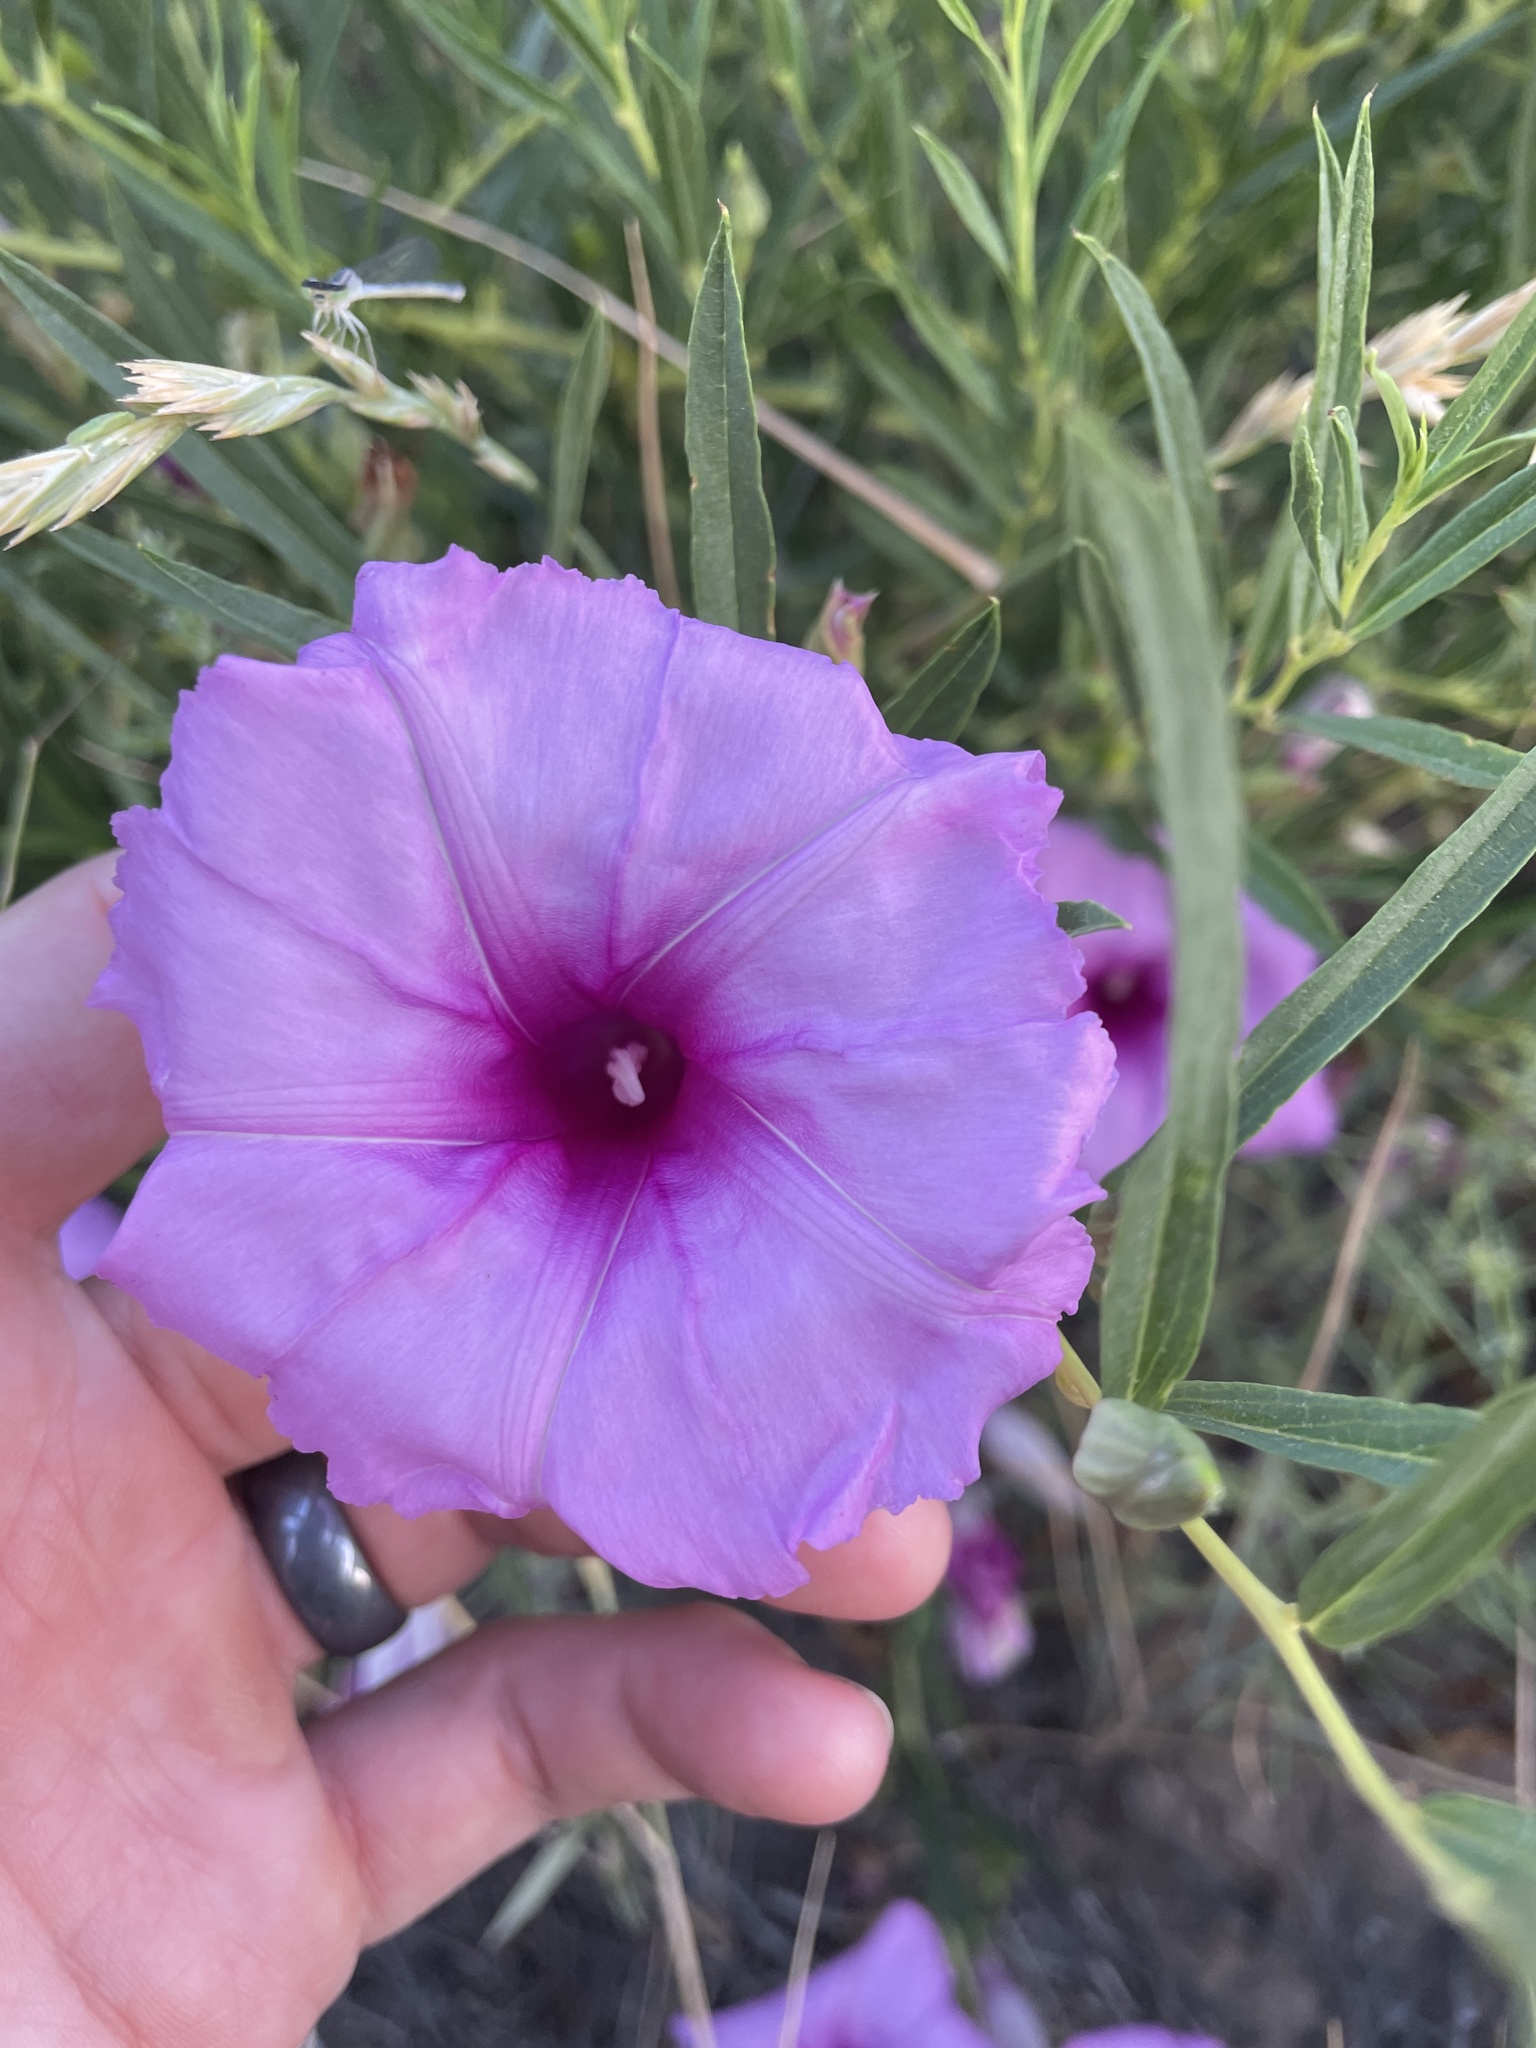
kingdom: Plantae
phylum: Tracheophyta
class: Magnoliopsida
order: Solanales
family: Convolvulaceae
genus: Ipomoea
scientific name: Ipomoea leptophylla
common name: Bush moonflower
